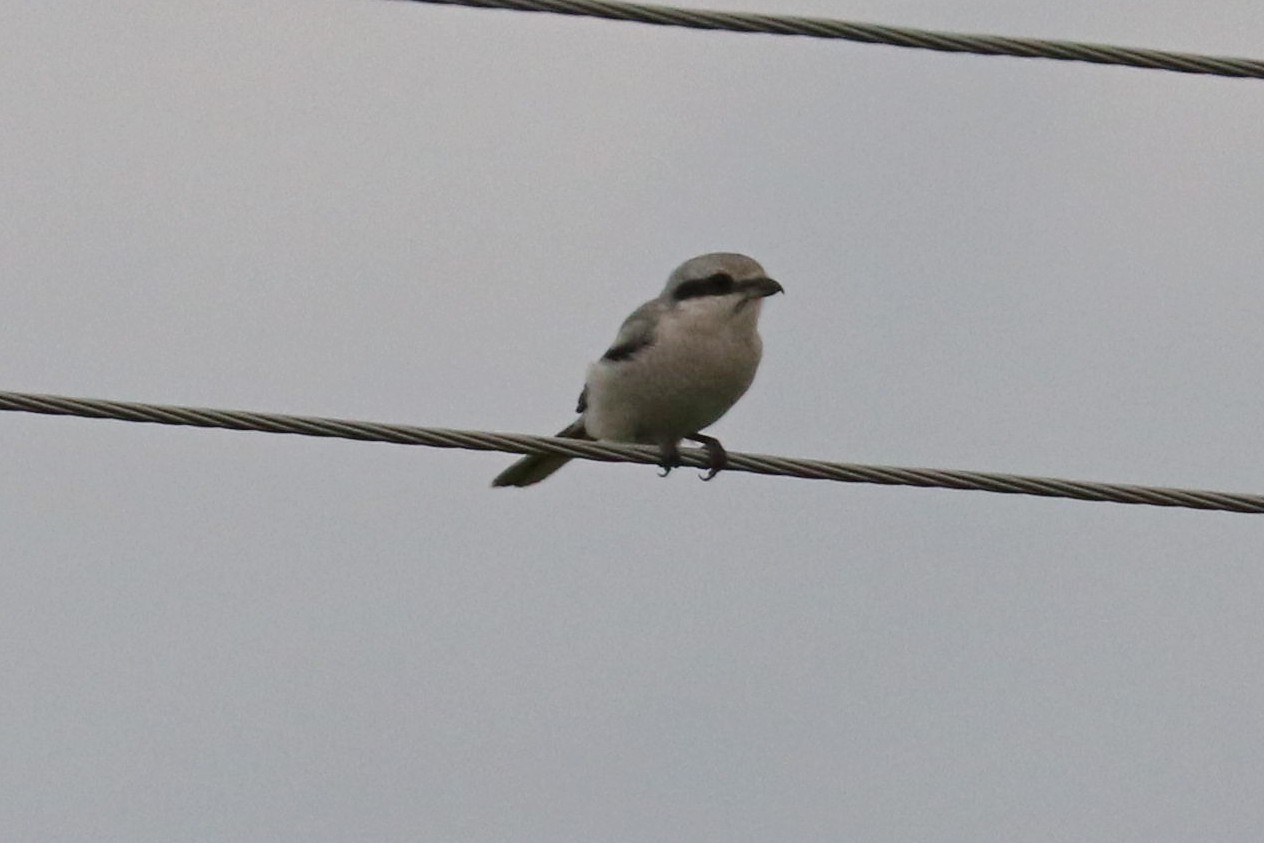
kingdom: Animalia
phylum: Chordata
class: Aves
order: Passeriformes
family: Laniidae
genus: Lanius
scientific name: Lanius excubitor
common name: Great grey shrike
